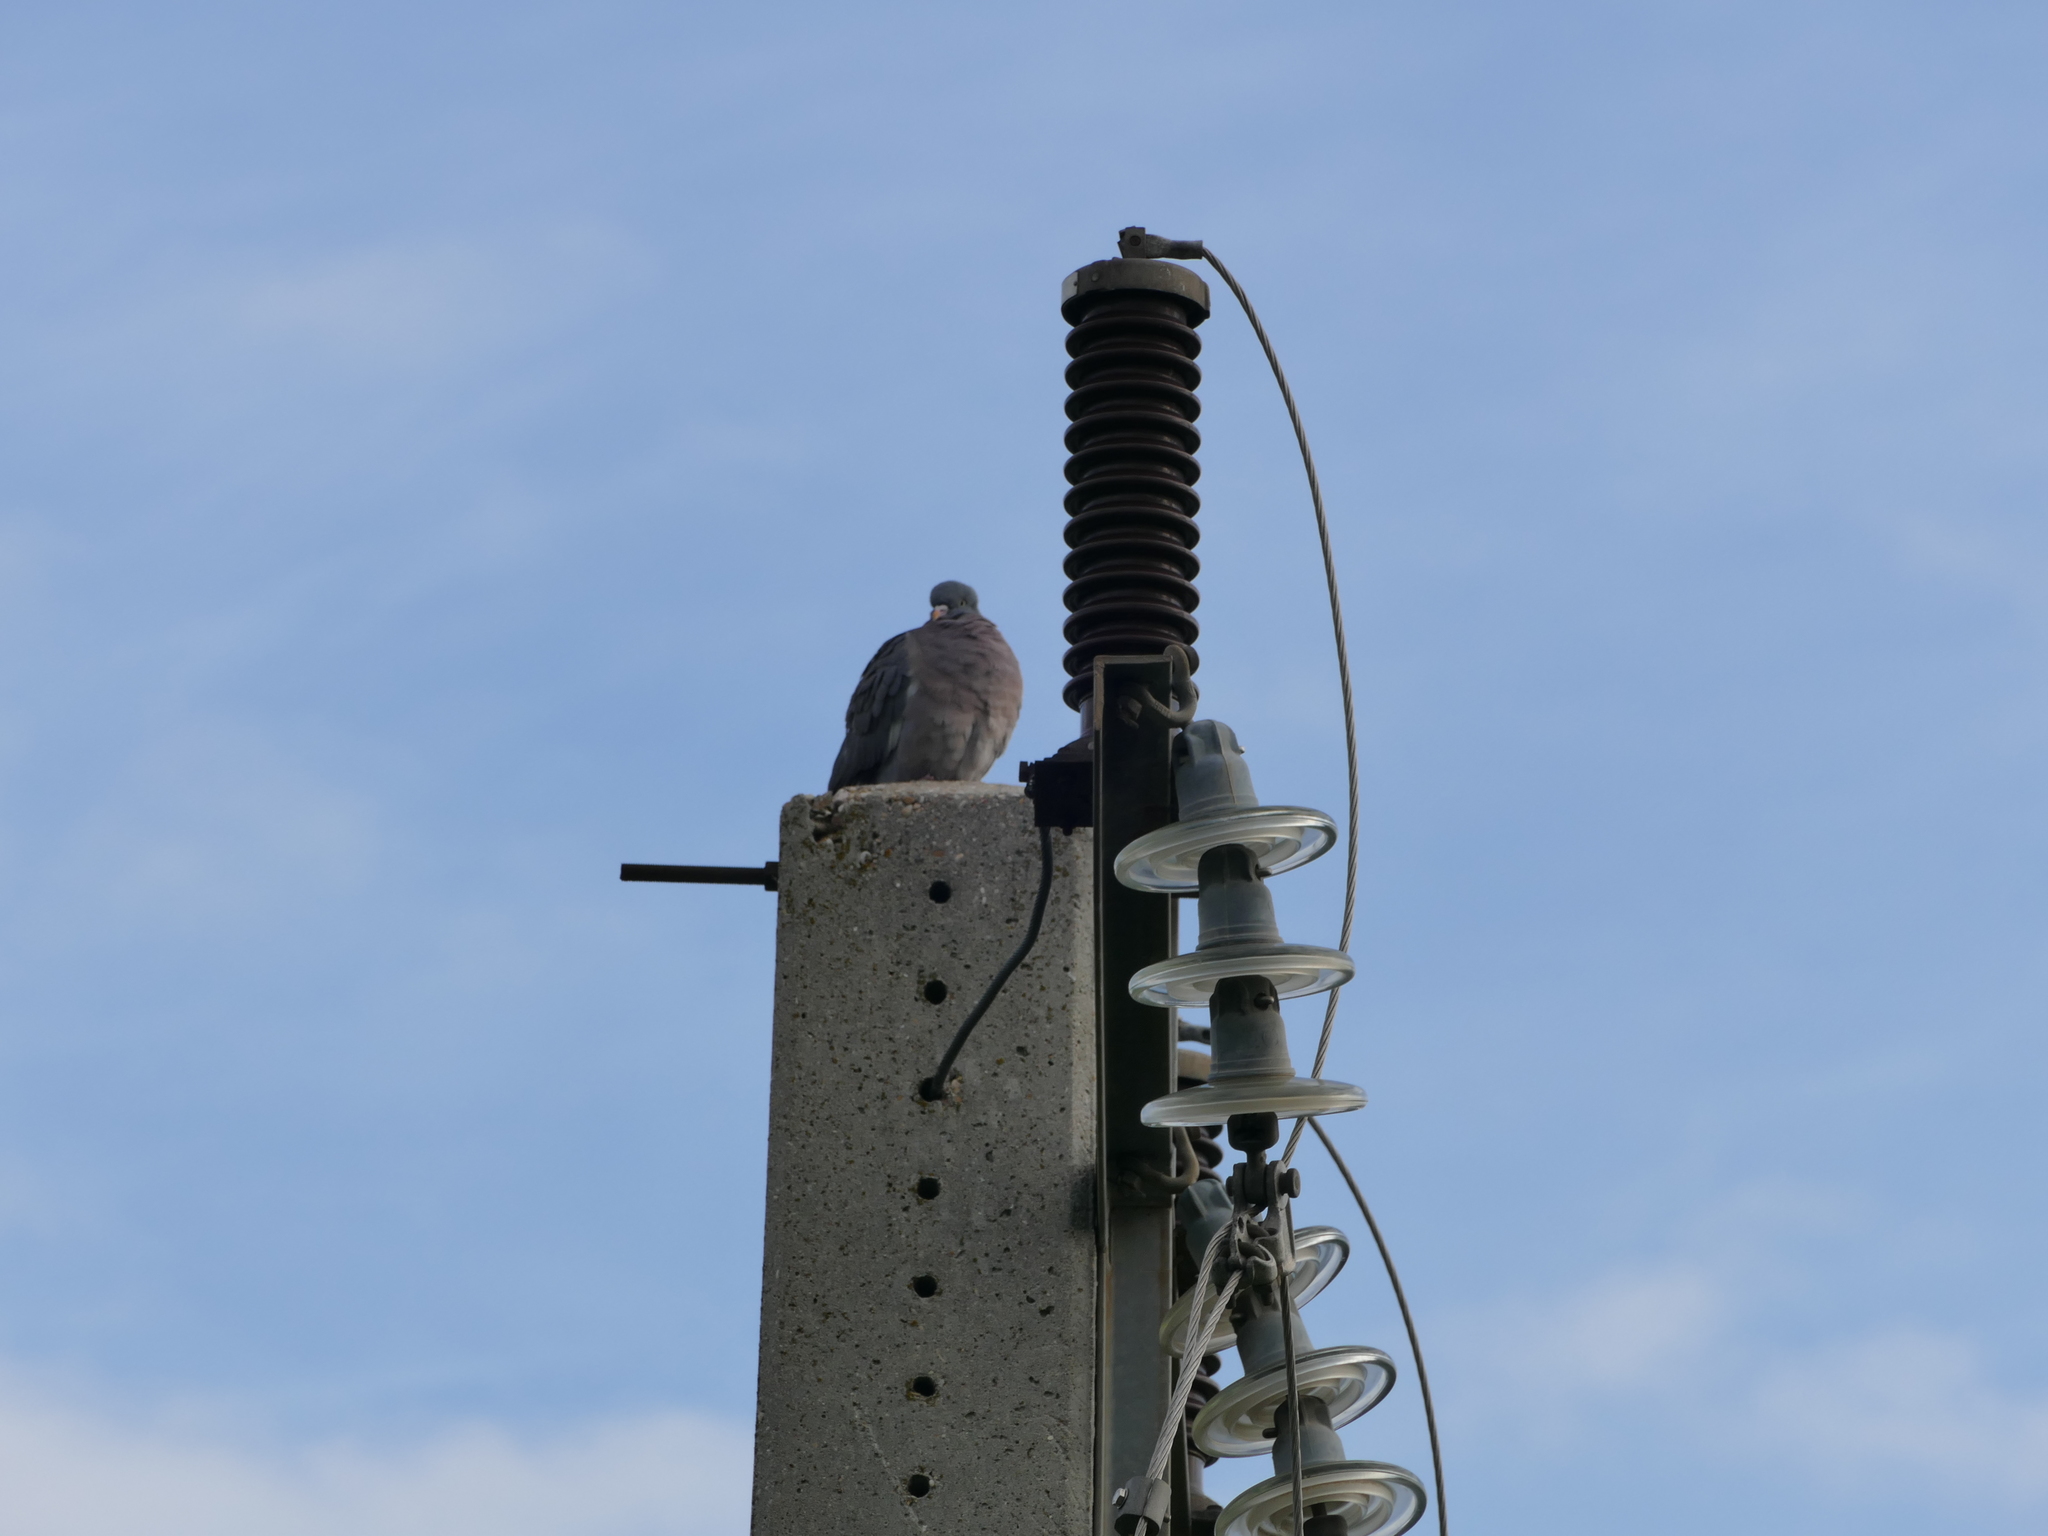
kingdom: Animalia
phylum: Chordata
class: Aves
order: Columbiformes
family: Columbidae
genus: Columba
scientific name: Columba palumbus
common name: Common wood pigeon
